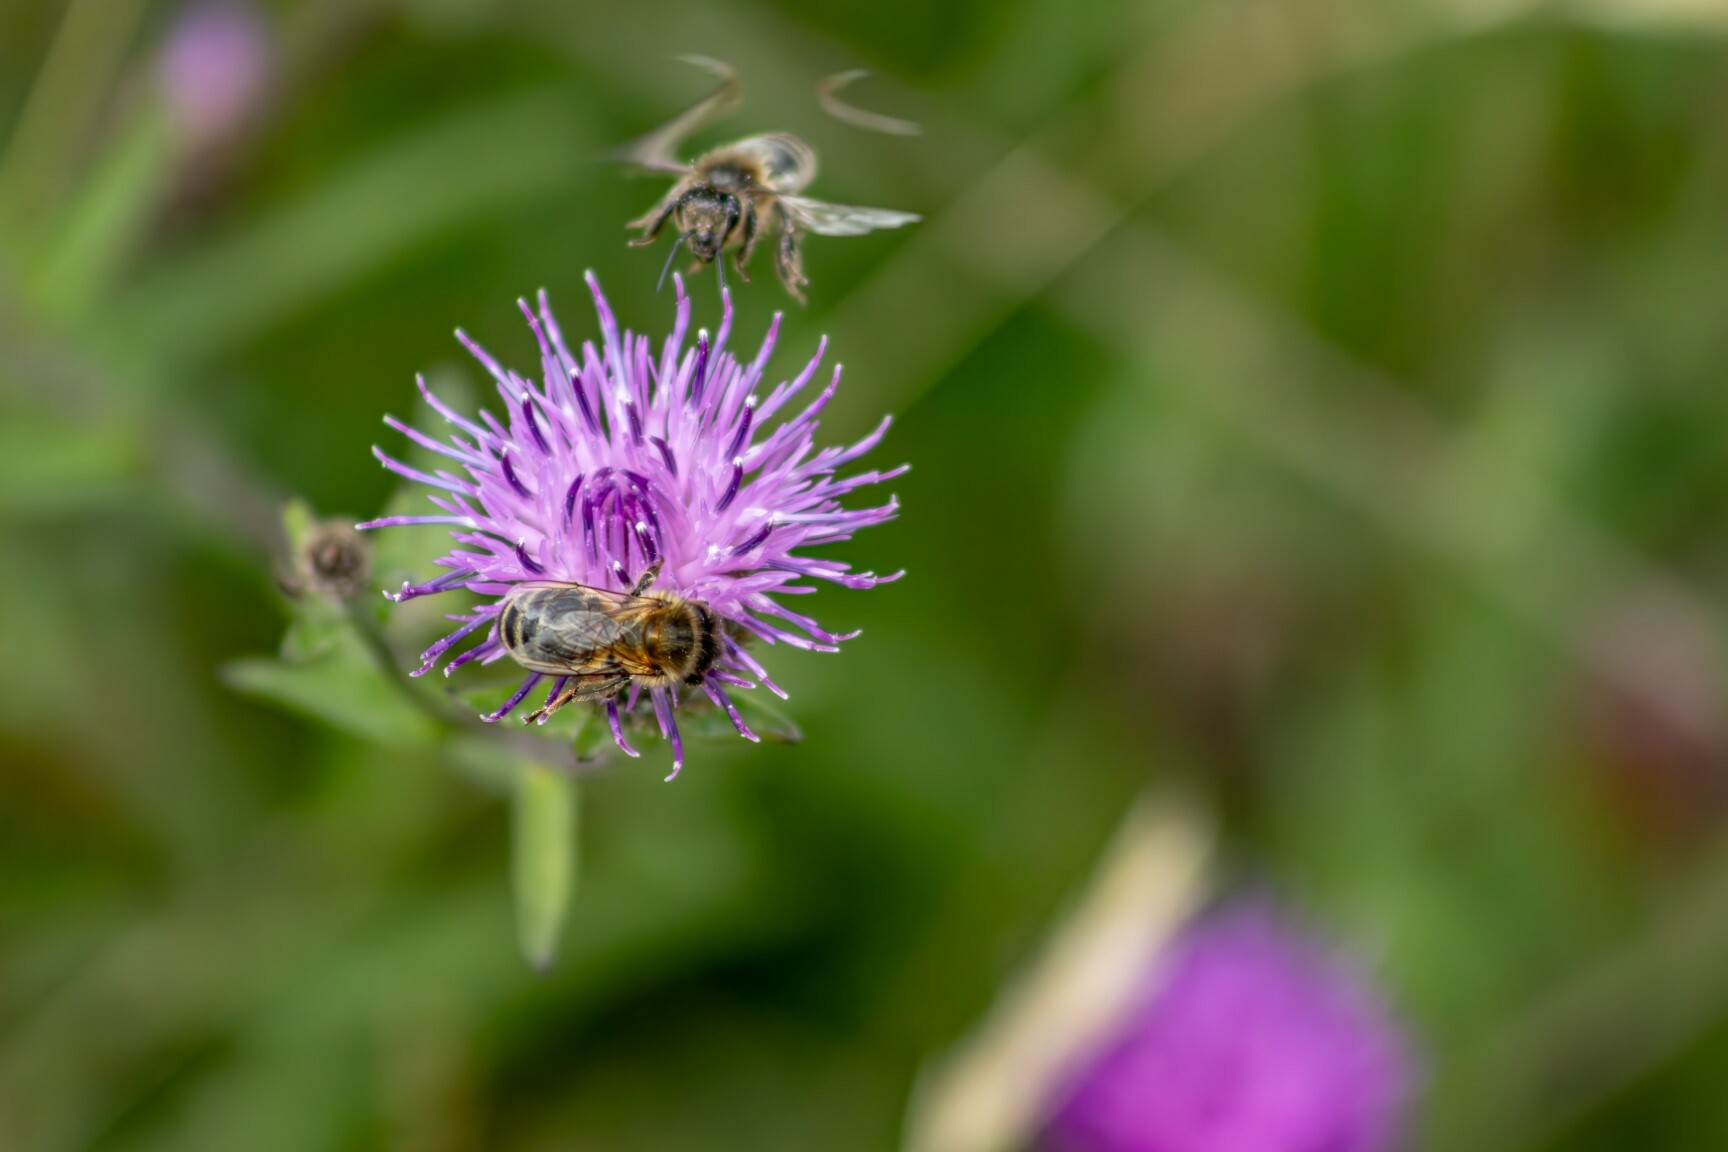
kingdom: Animalia
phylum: Arthropoda
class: Insecta
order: Hymenoptera
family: Apidae
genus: Apis
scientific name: Apis mellifera
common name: Honey bee
